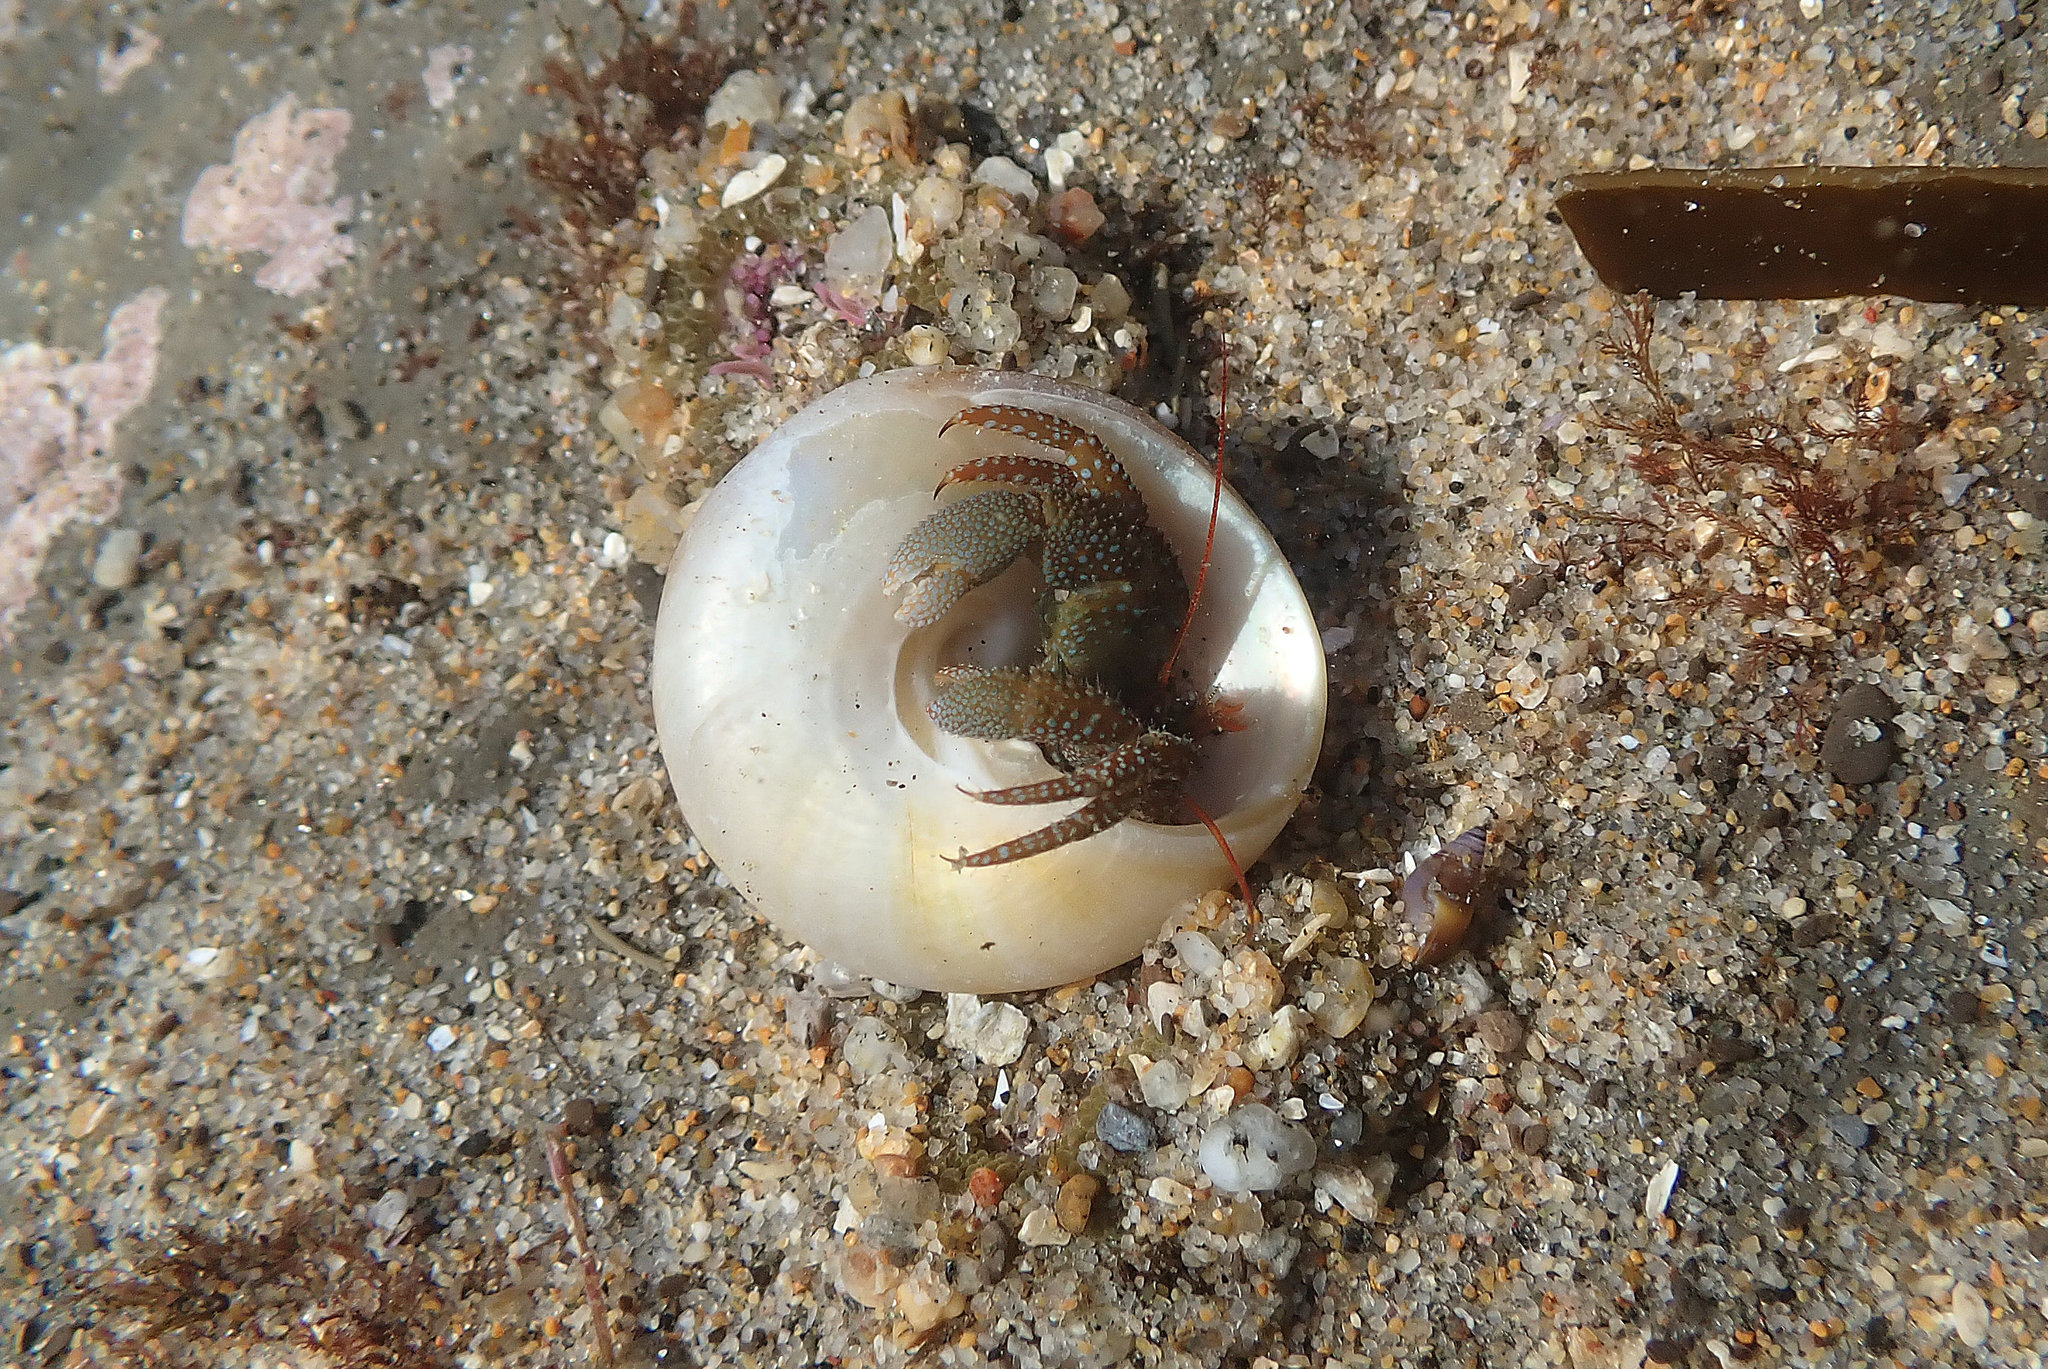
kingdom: Animalia
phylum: Arthropoda
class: Malacostraca
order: Decapoda
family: Paguridae
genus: Pagurus
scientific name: Pagurus granosimanus
